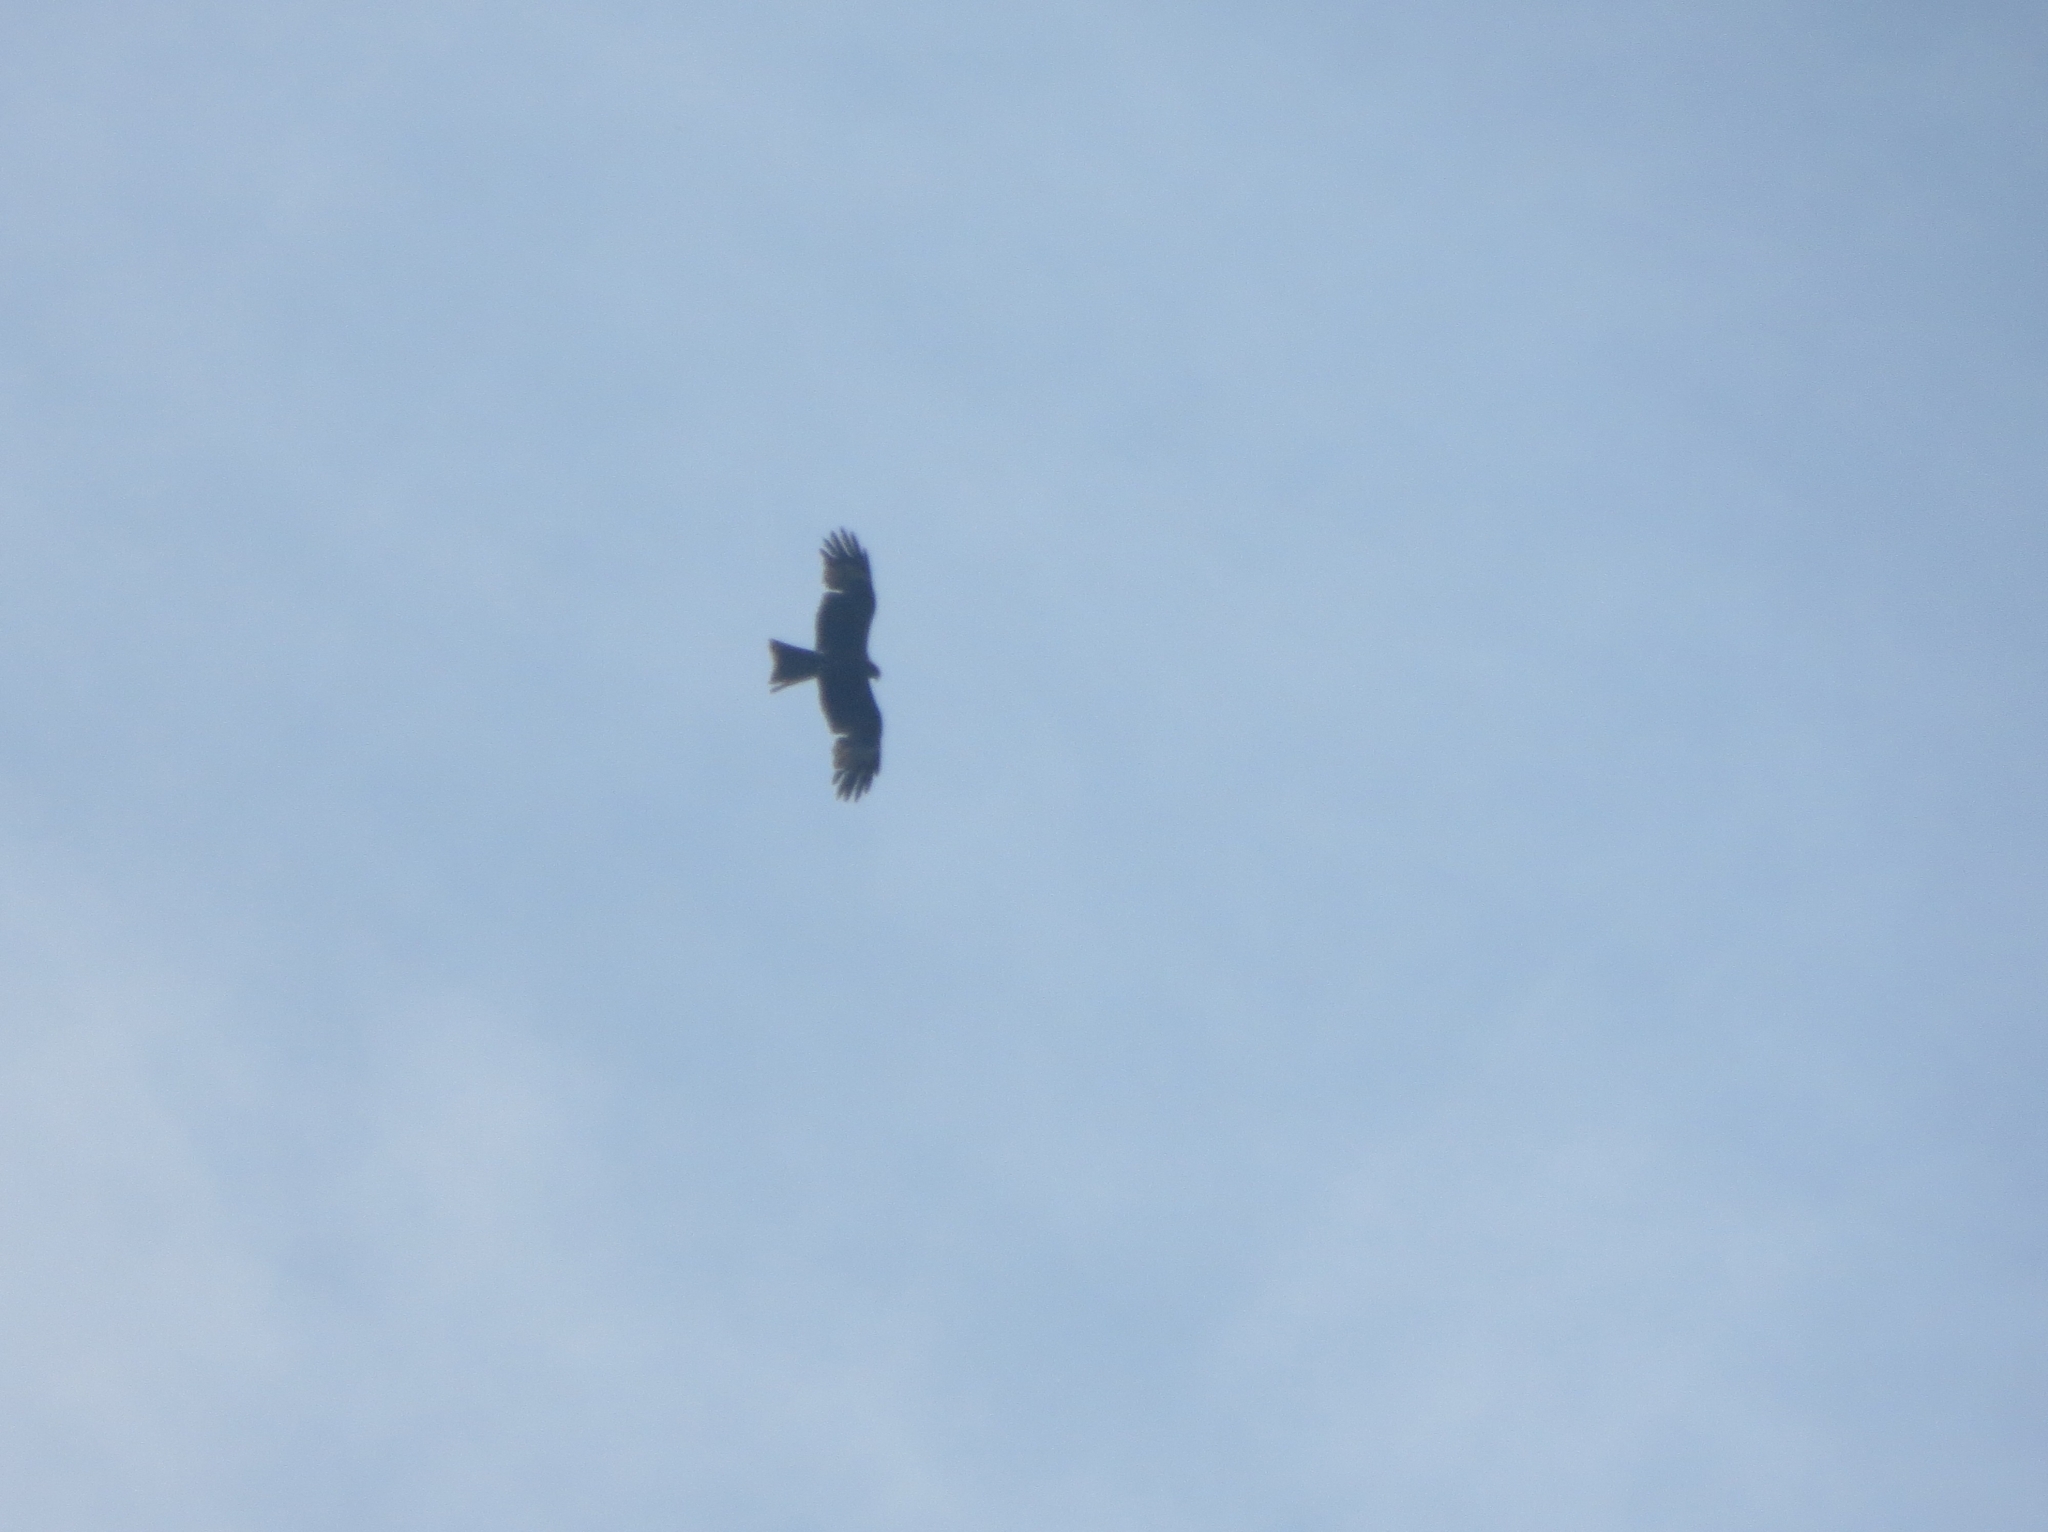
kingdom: Animalia
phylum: Chordata
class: Aves
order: Accipitriformes
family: Accipitridae
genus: Milvus
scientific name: Milvus migrans
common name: Black kite
